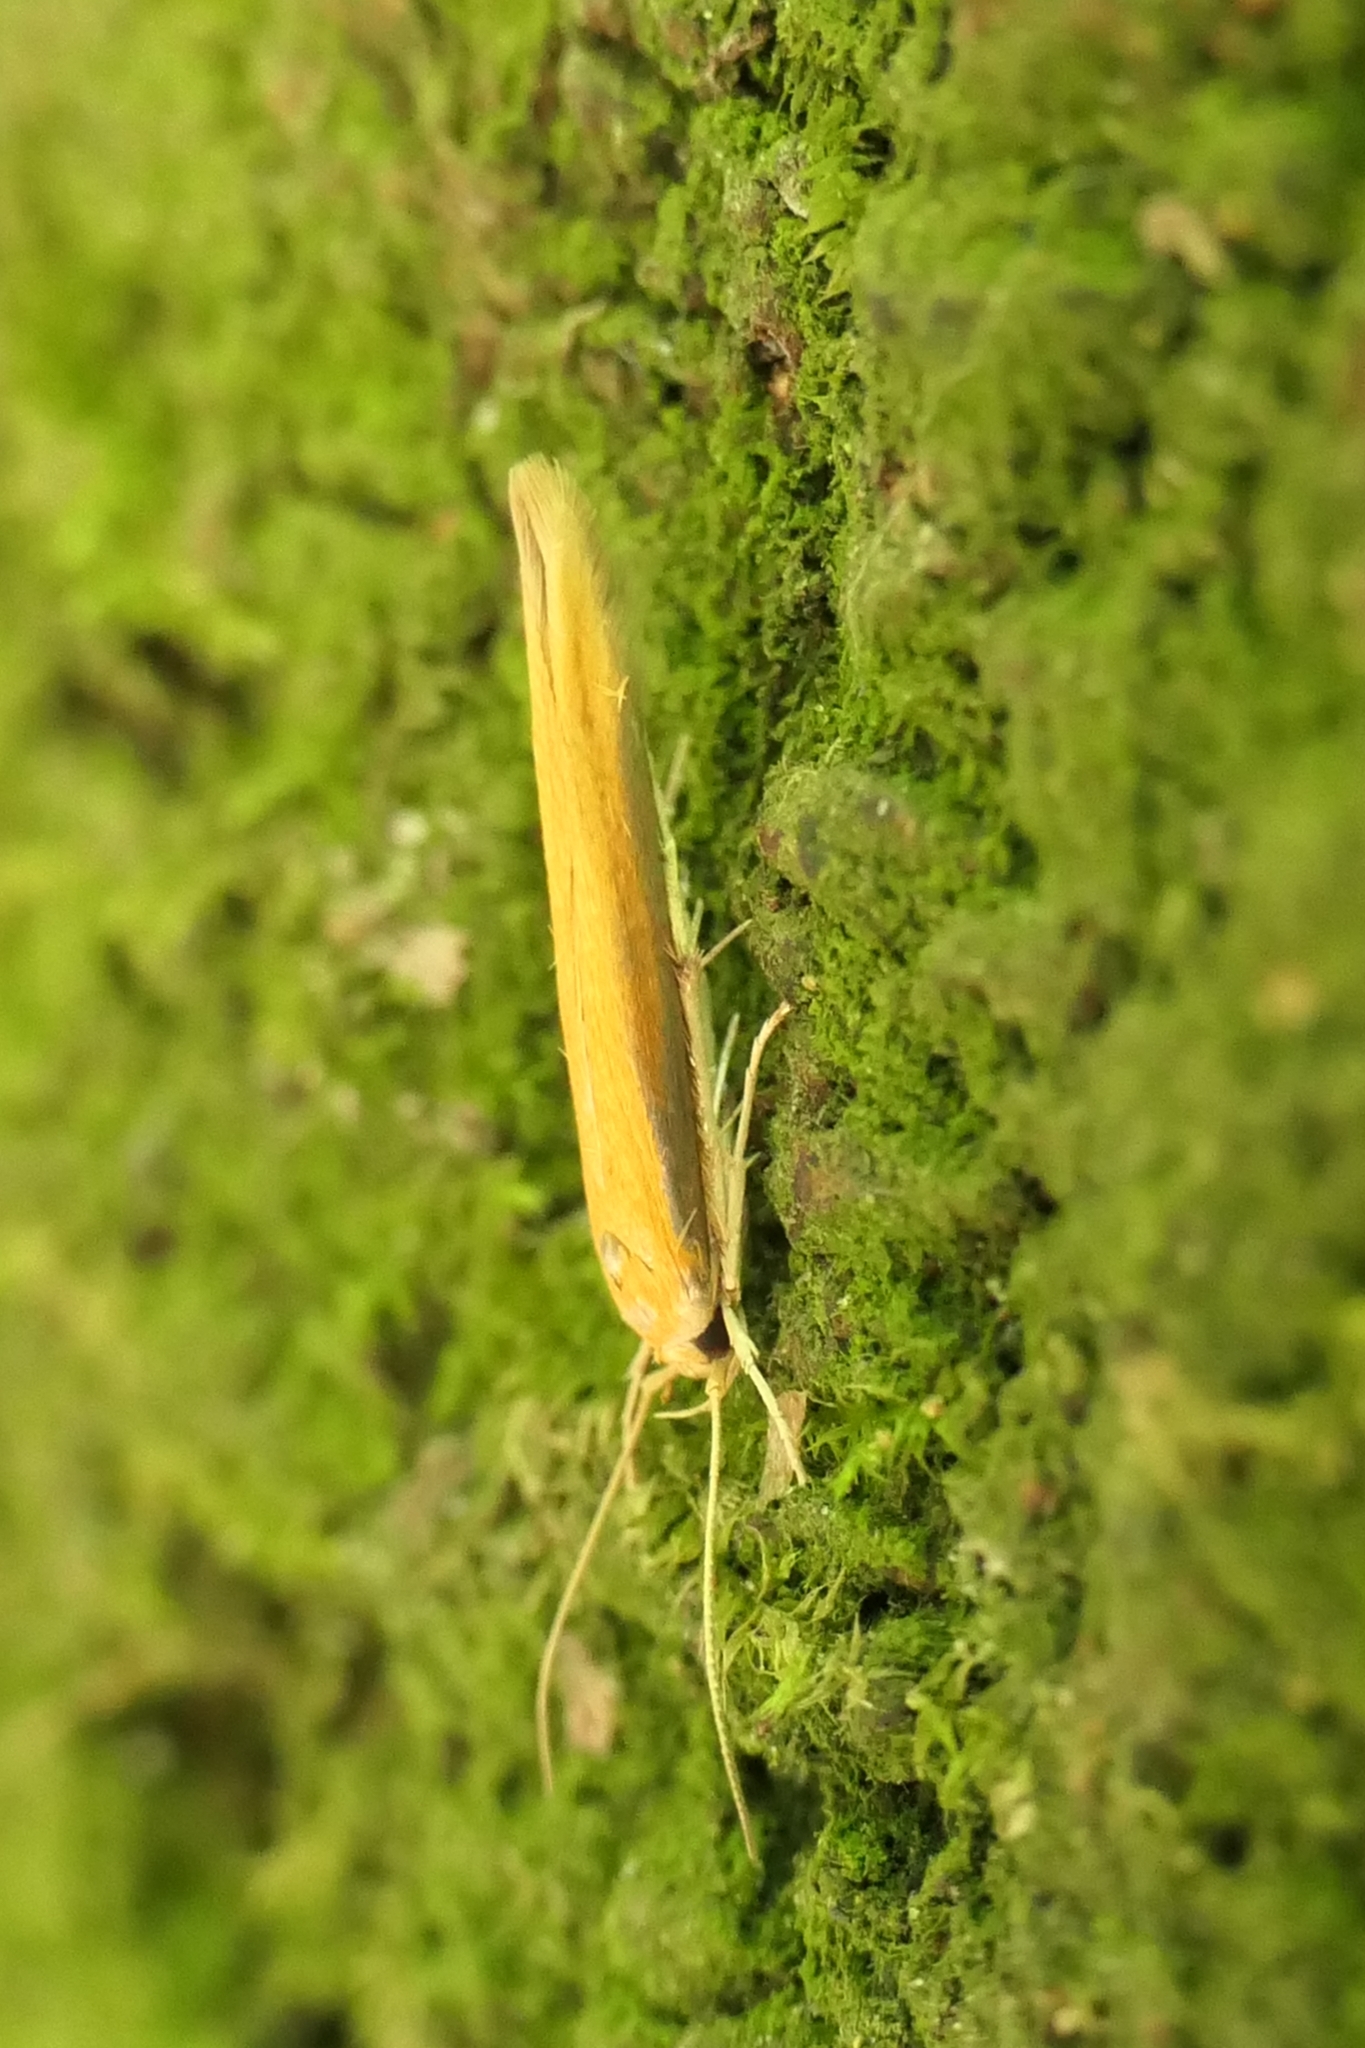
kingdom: Animalia
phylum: Arthropoda
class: Insecta
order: Lepidoptera
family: Stathmopodidae
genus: Stathmopoda
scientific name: Stathmopoda skelloni
